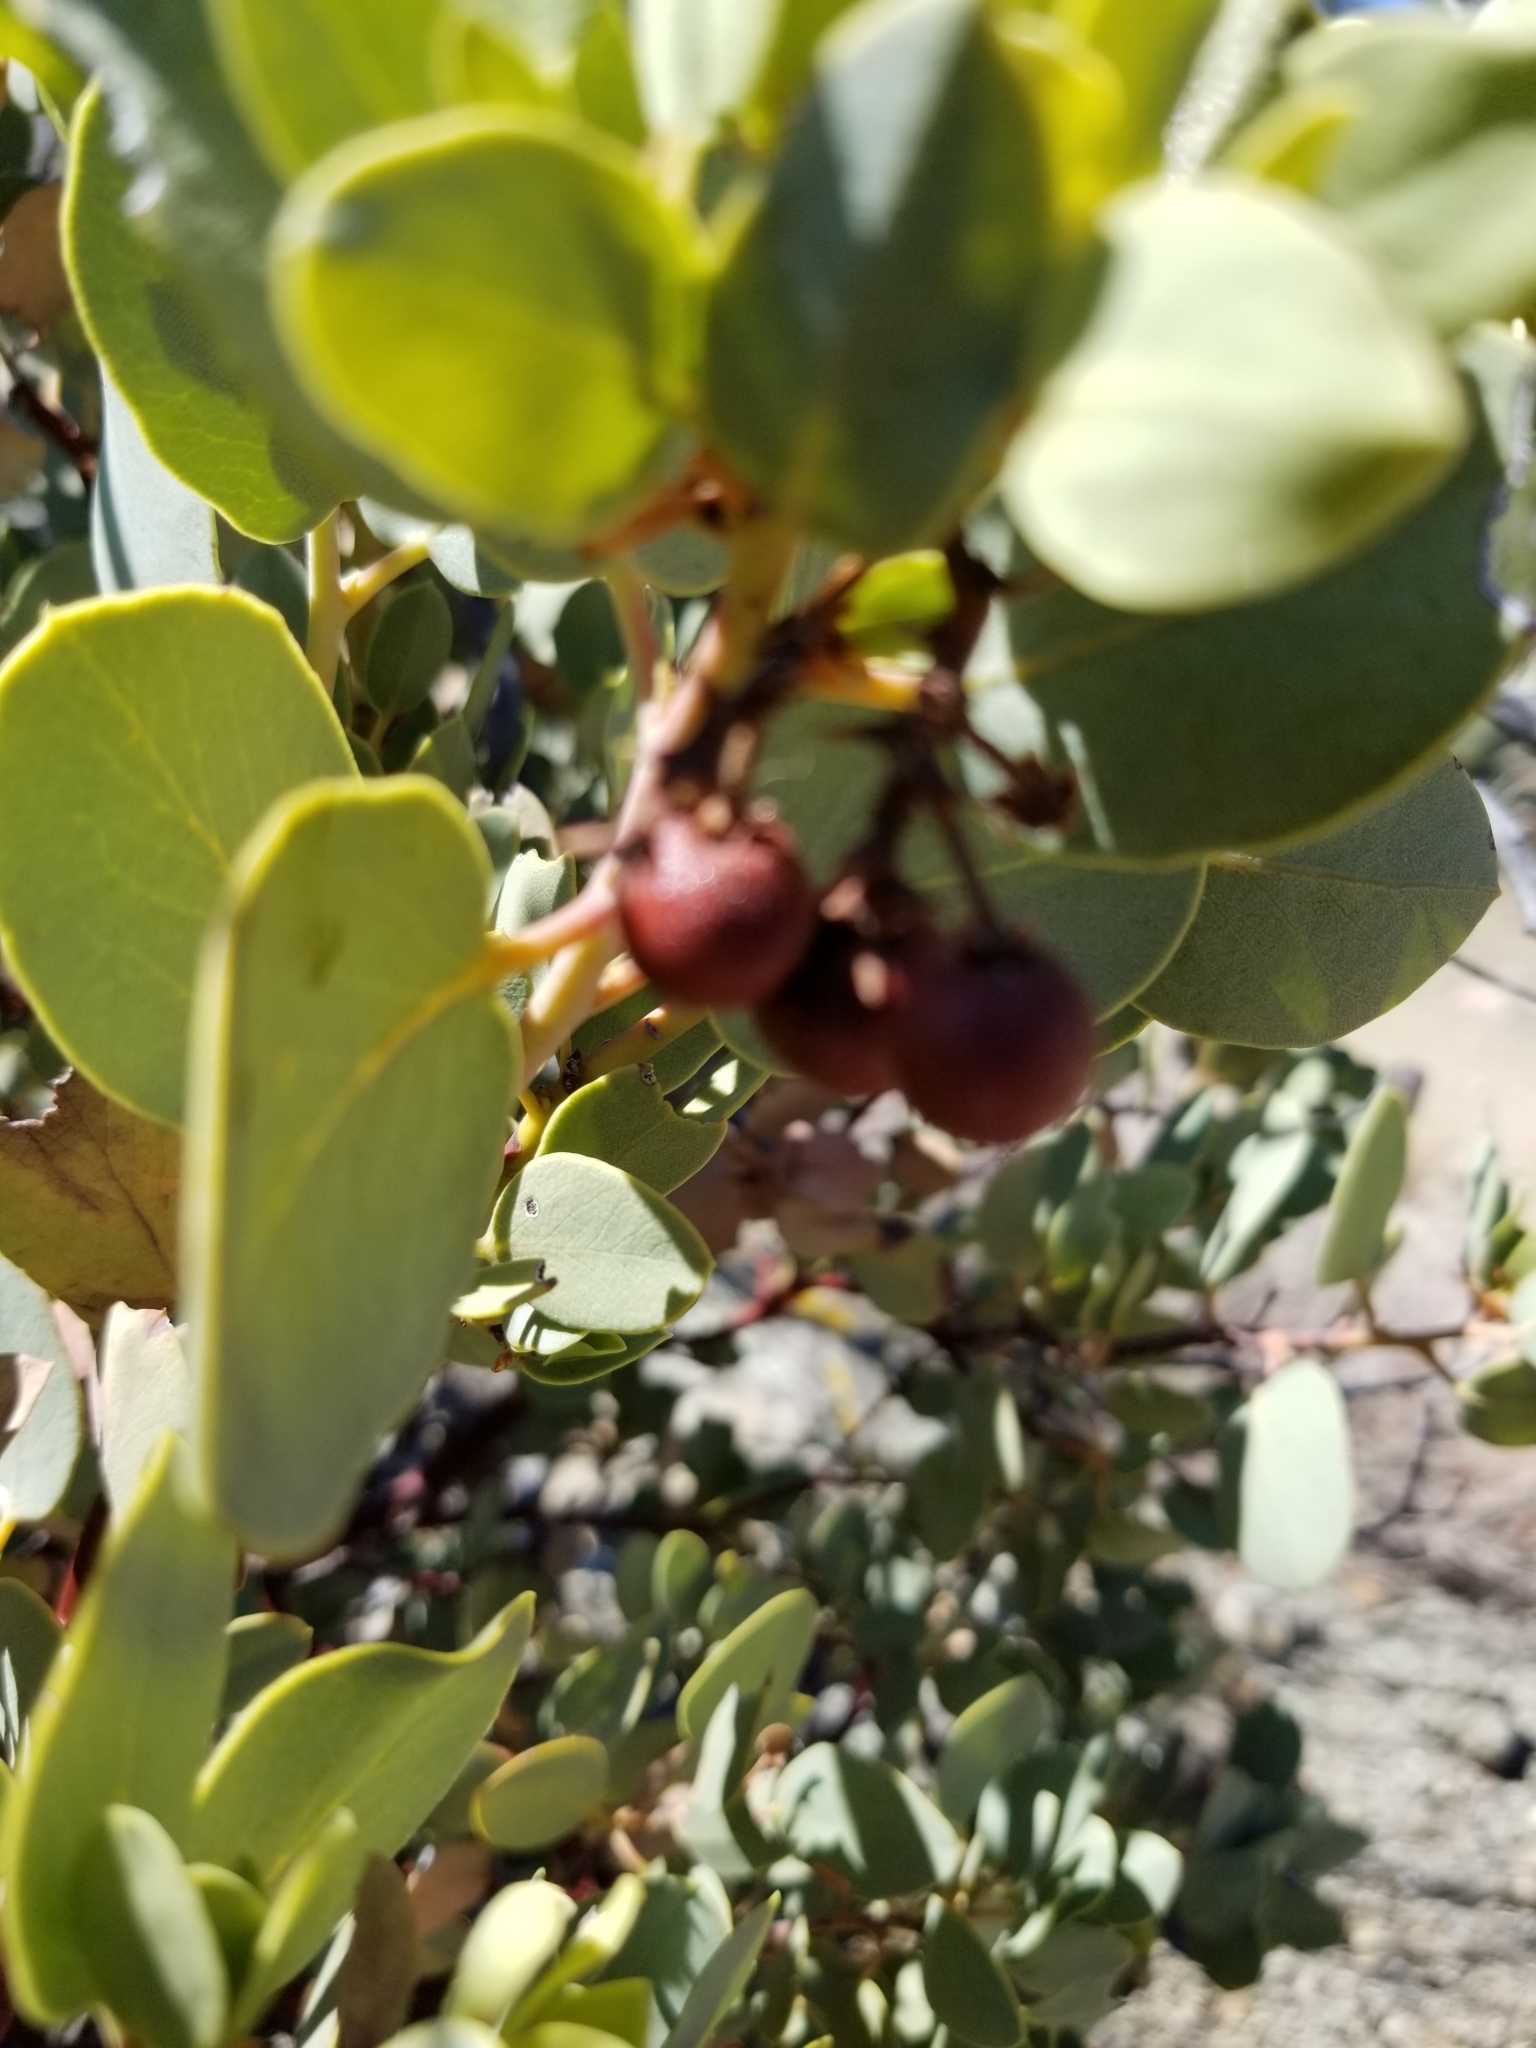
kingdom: Plantae
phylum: Tracheophyta
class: Magnoliopsida
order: Ericales
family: Ericaceae
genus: Arctostaphylos
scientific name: Arctostaphylos glauca
